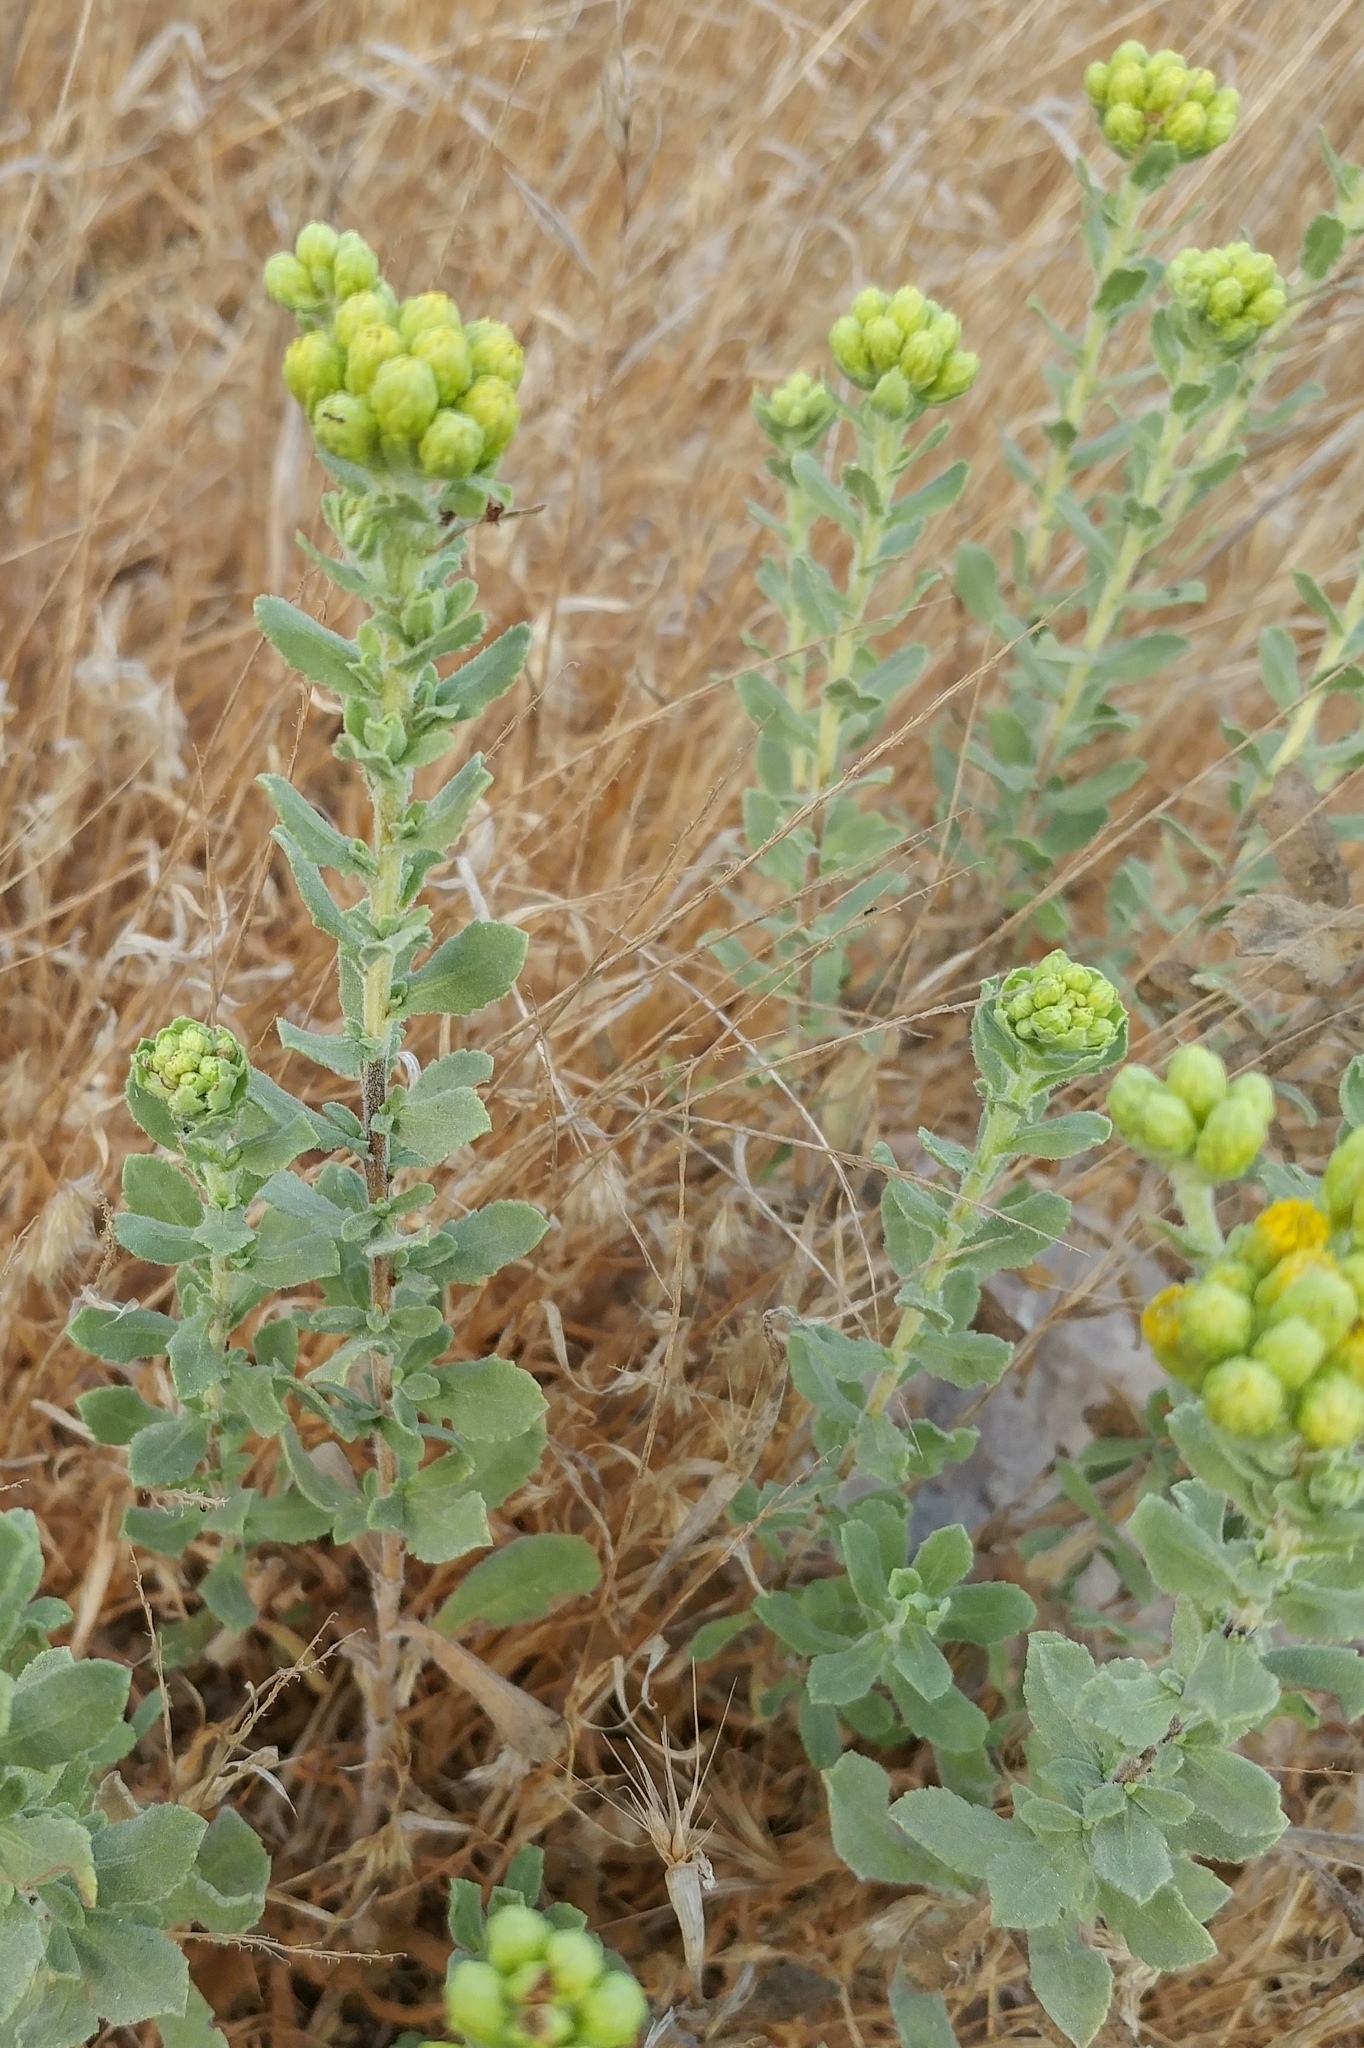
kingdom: Plantae
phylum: Tracheophyta
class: Magnoliopsida
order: Asterales
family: Asteraceae
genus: Isocoma
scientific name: Isocoma menziesii
